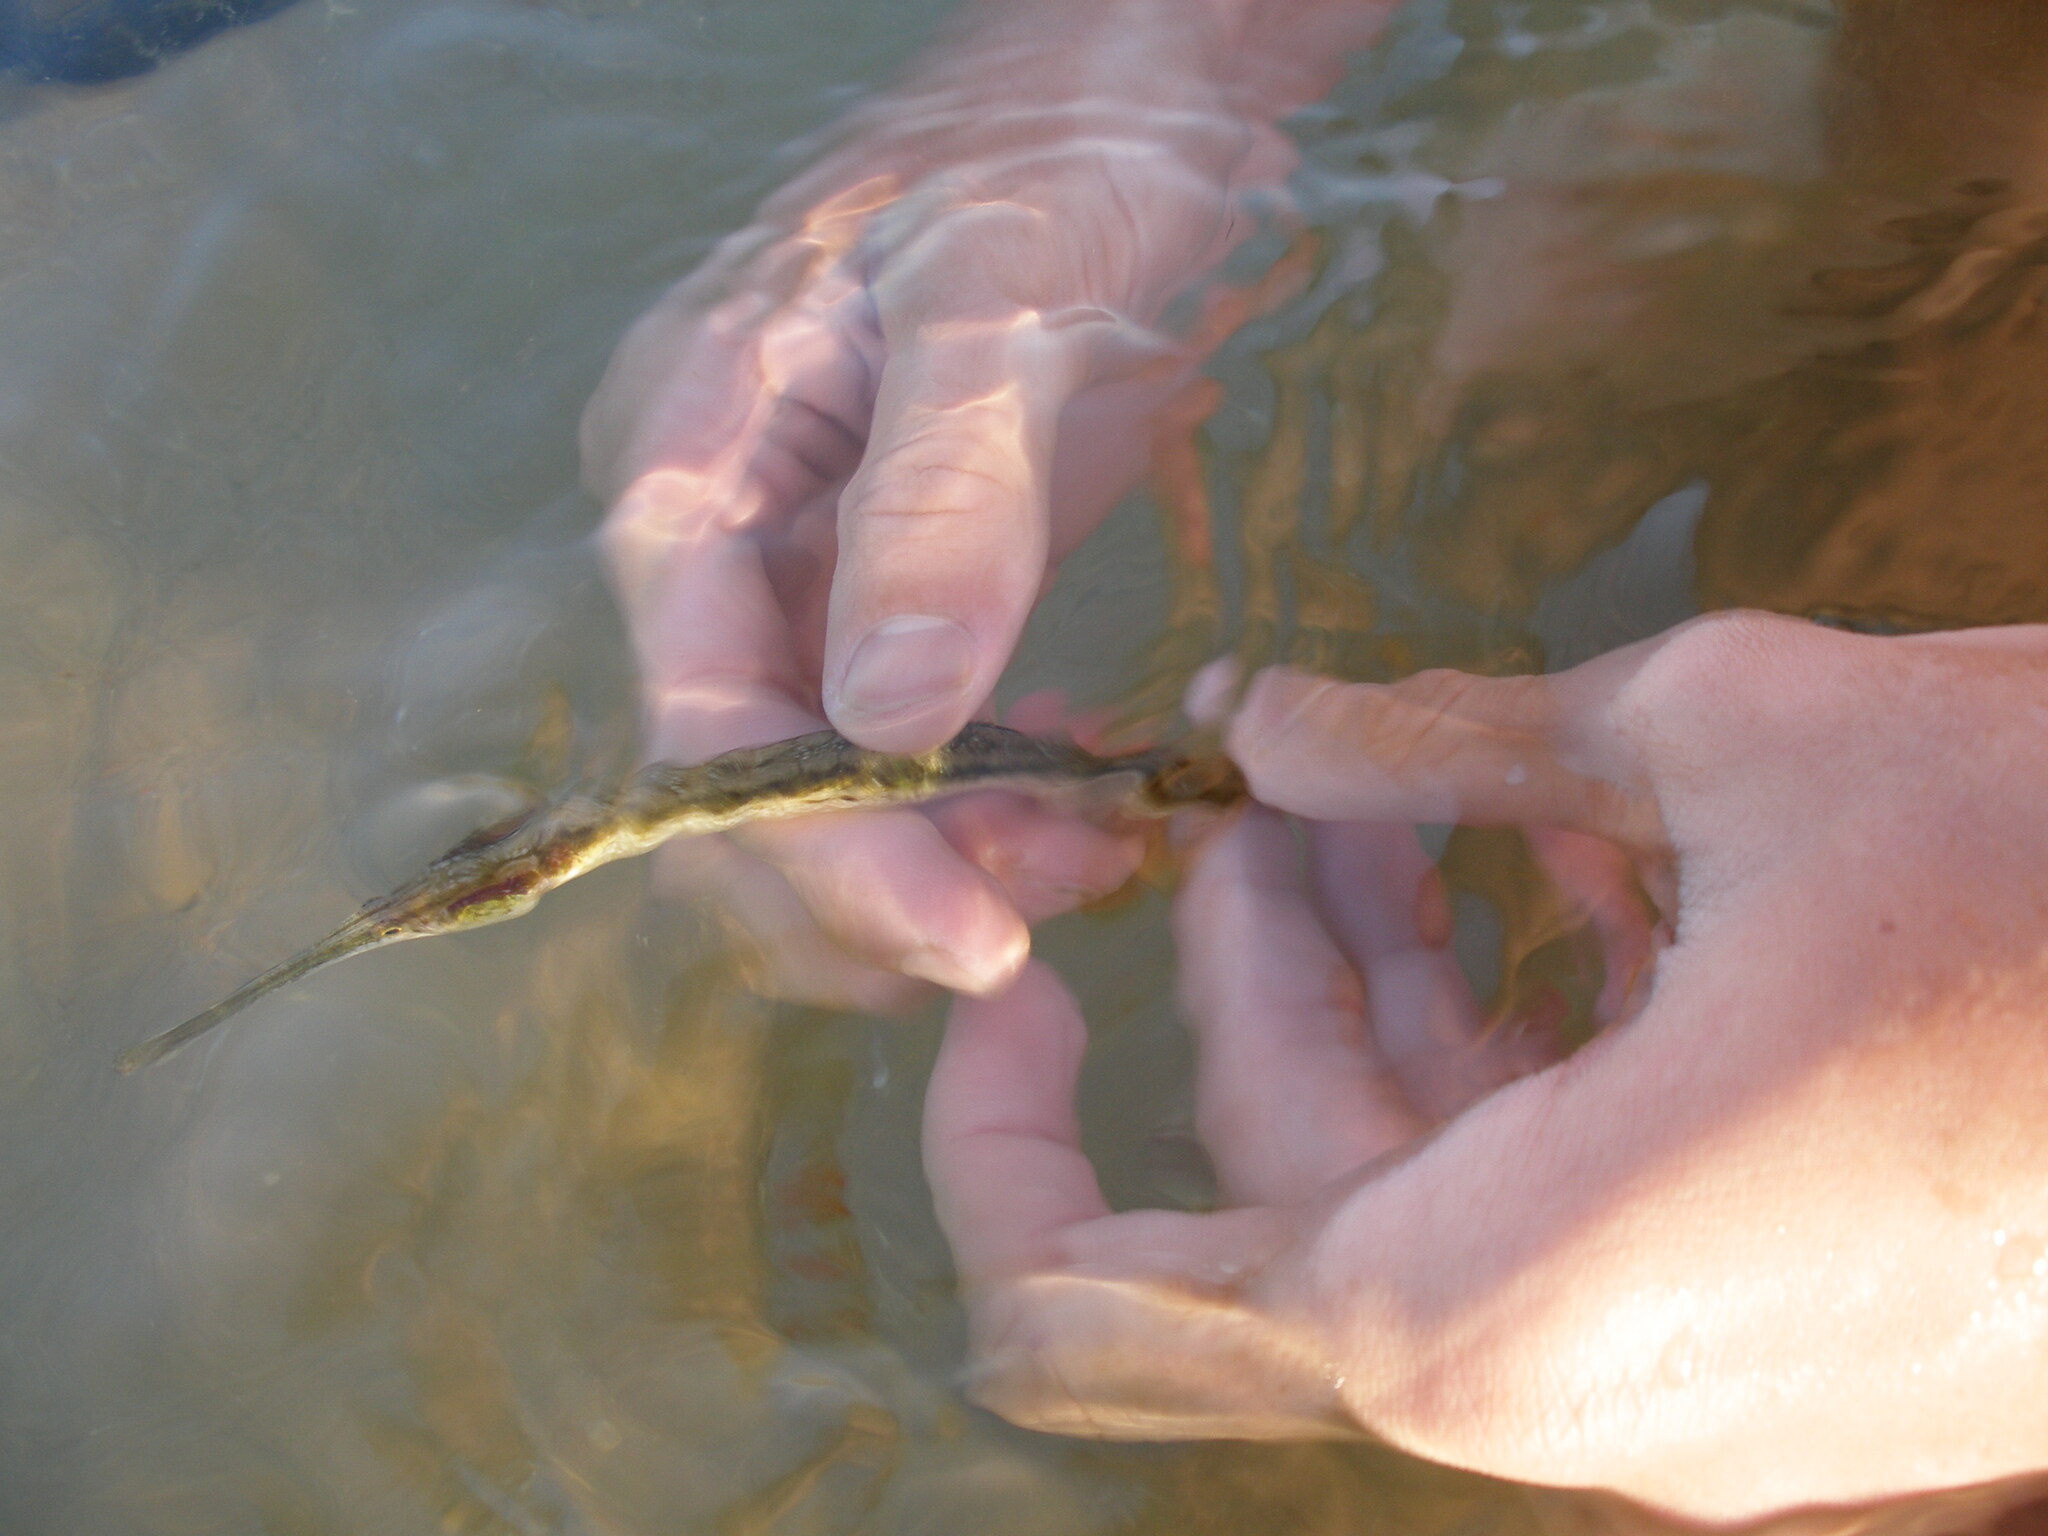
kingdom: Animalia
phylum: Chordata
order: Syngnathiformes
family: Syngnathidae
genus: Syngnathus
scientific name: Syngnathus typhle
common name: Deep-snouted pipefish
